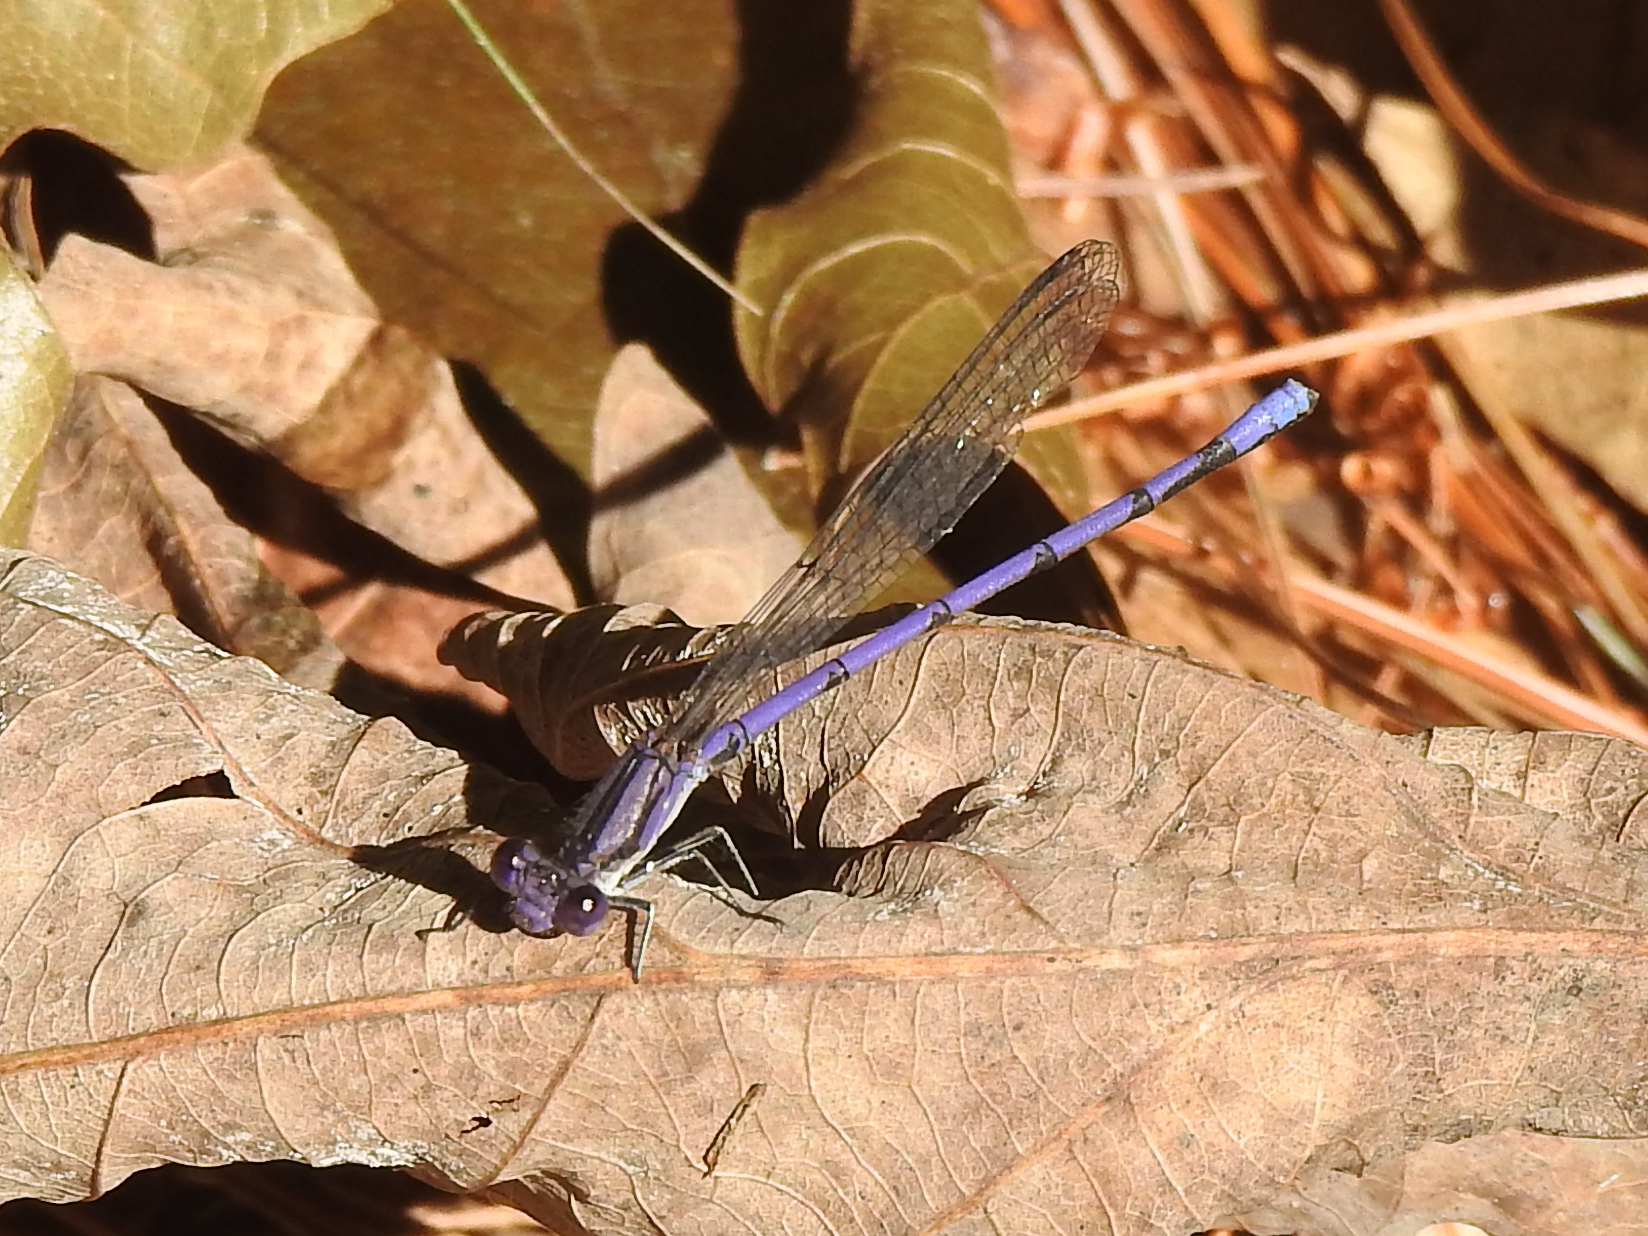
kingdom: Animalia
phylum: Arthropoda
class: Insecta
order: Odonata
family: Coenagrionidae
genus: Argia
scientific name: Argia fumipennis
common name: Variable dancer
